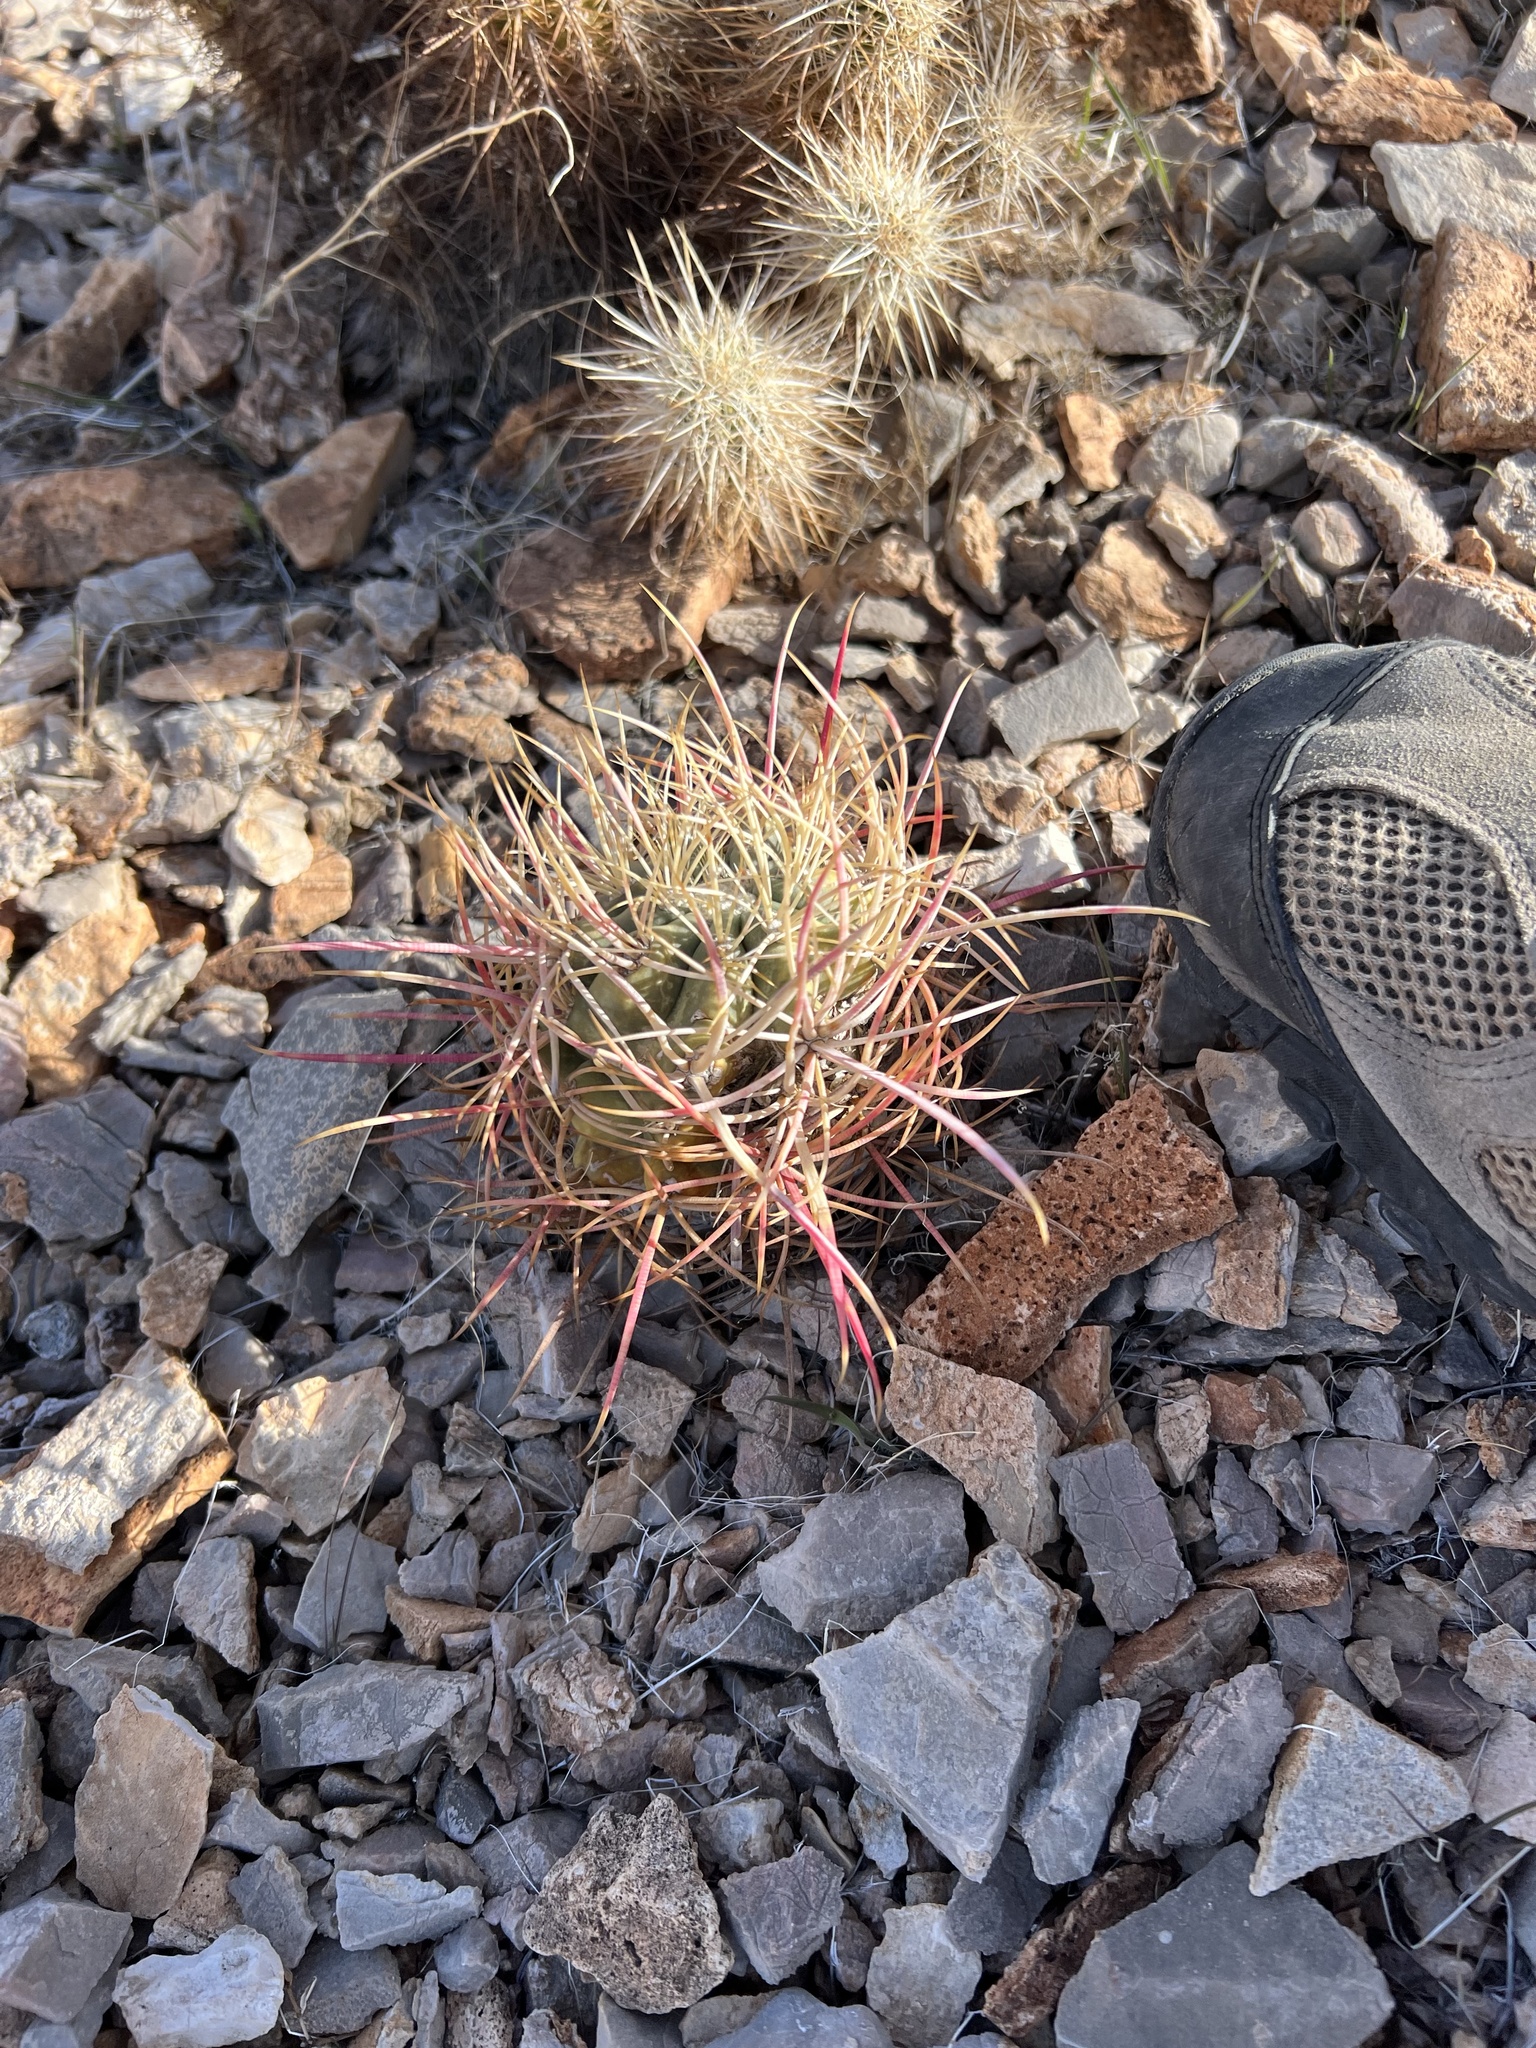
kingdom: Plantae
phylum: Tracheophyta
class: Magnoliopsida
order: Caryophyllales
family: Cactaceae
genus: Ferocactus
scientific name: Ferocactus cylindraceus
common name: California barrel cactus
